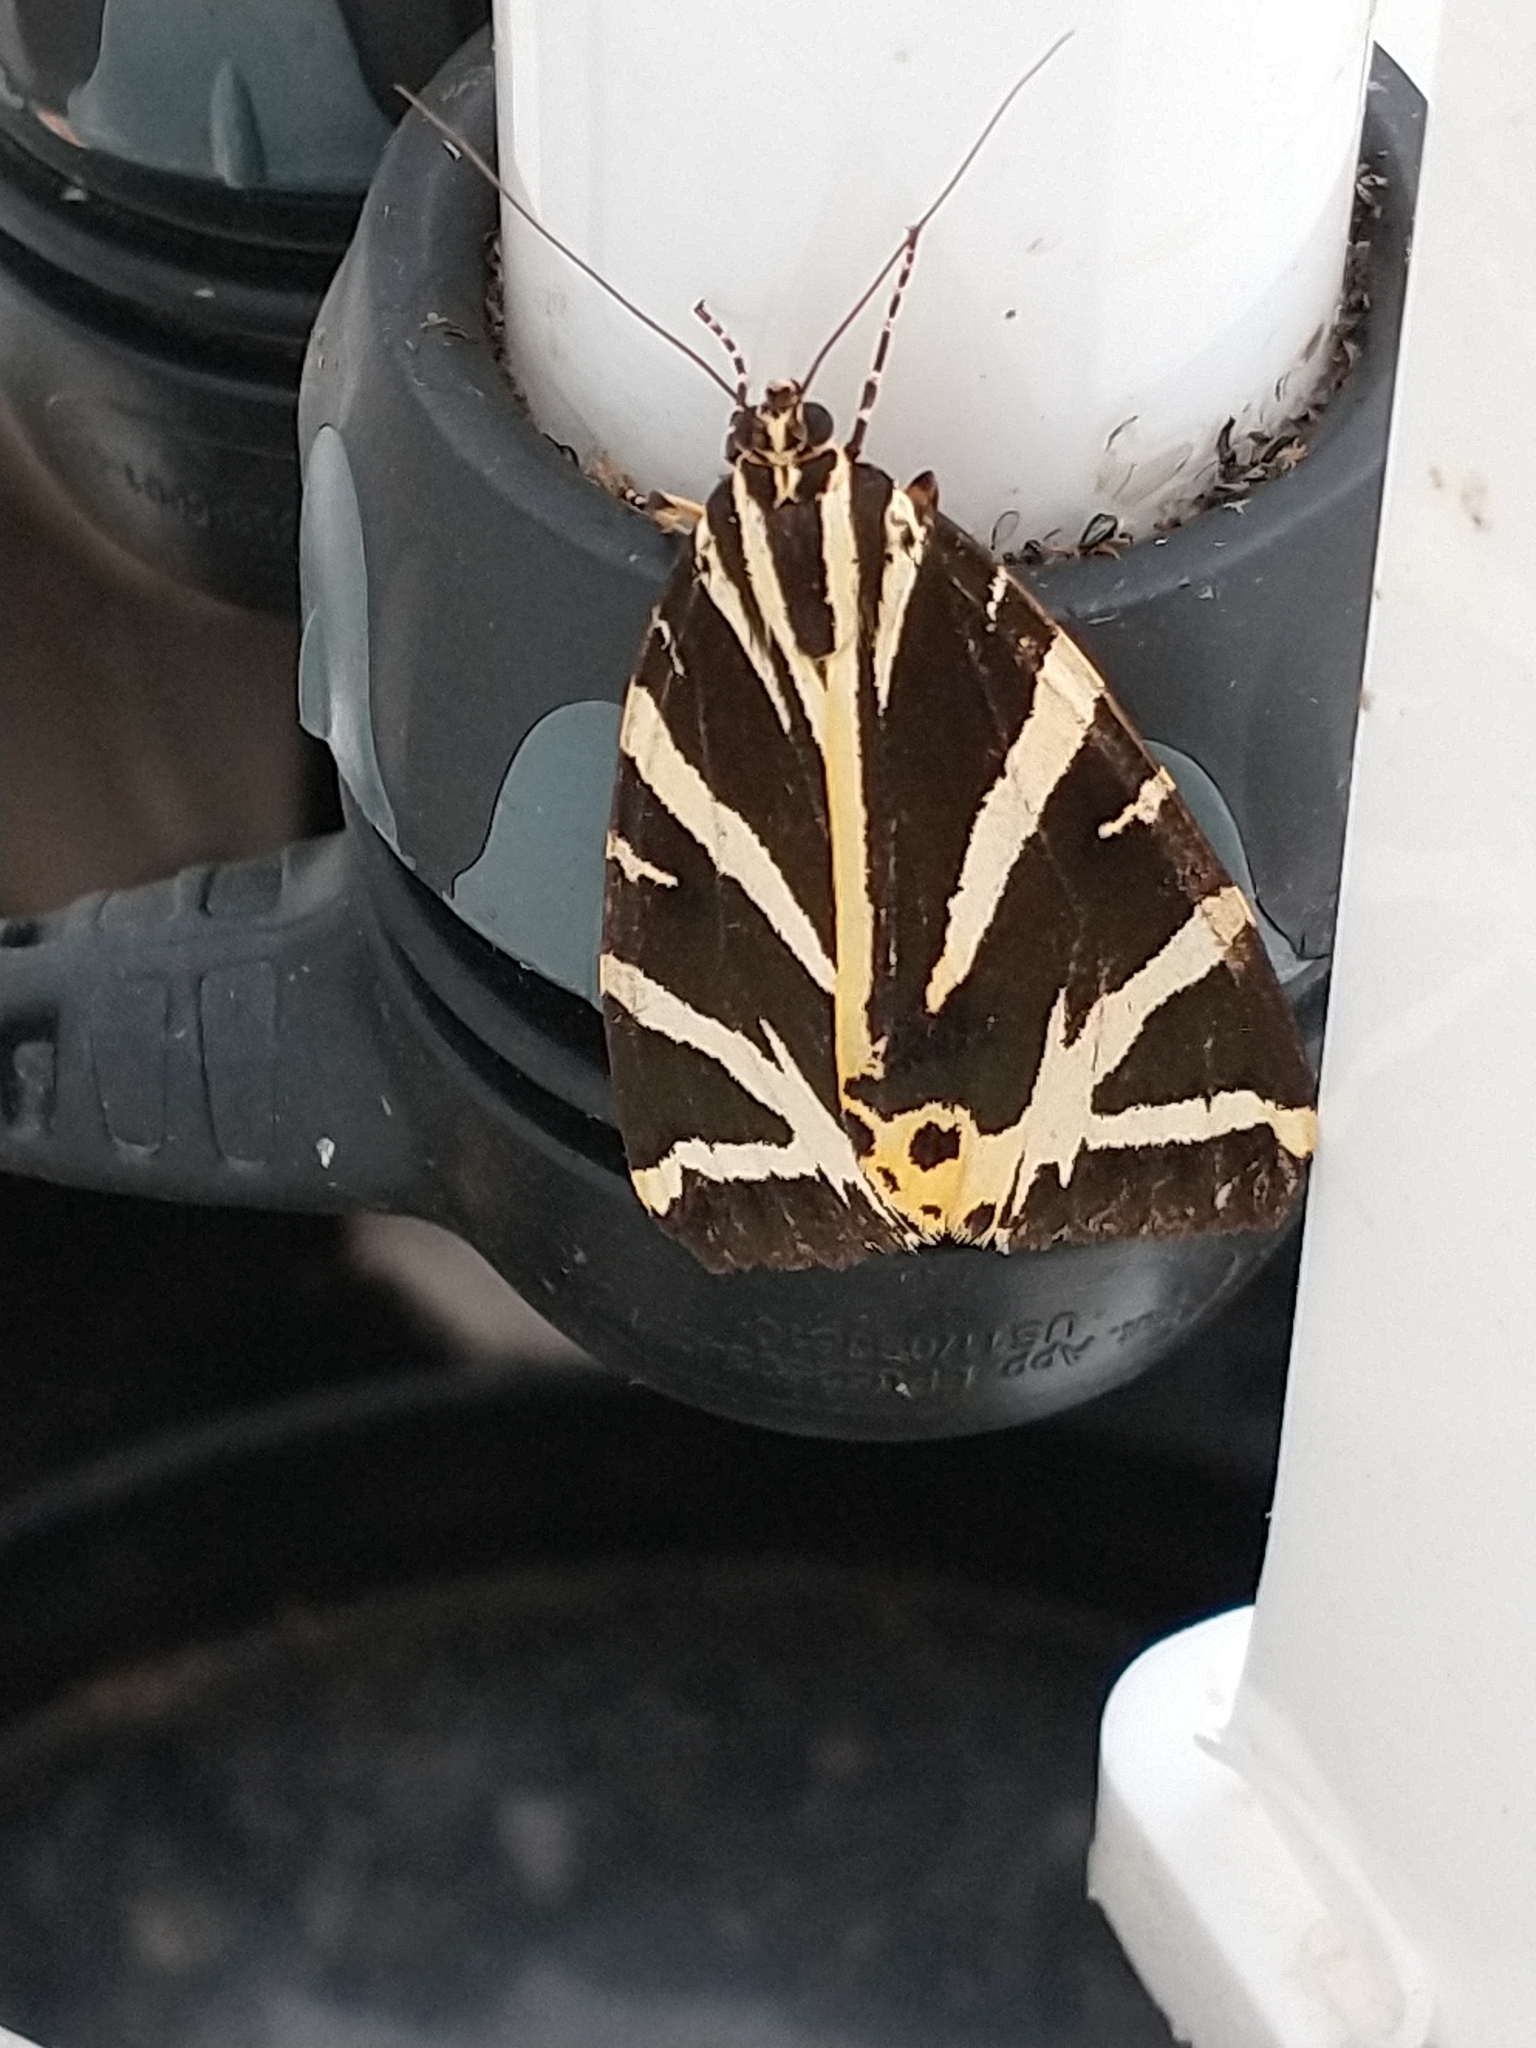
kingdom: Animalia
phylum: Arthropoda
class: Insecta
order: Lepidoptera
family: Erebidae
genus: Euplagia
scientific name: Euplagia quadripunctaria
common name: Jersey tiger
